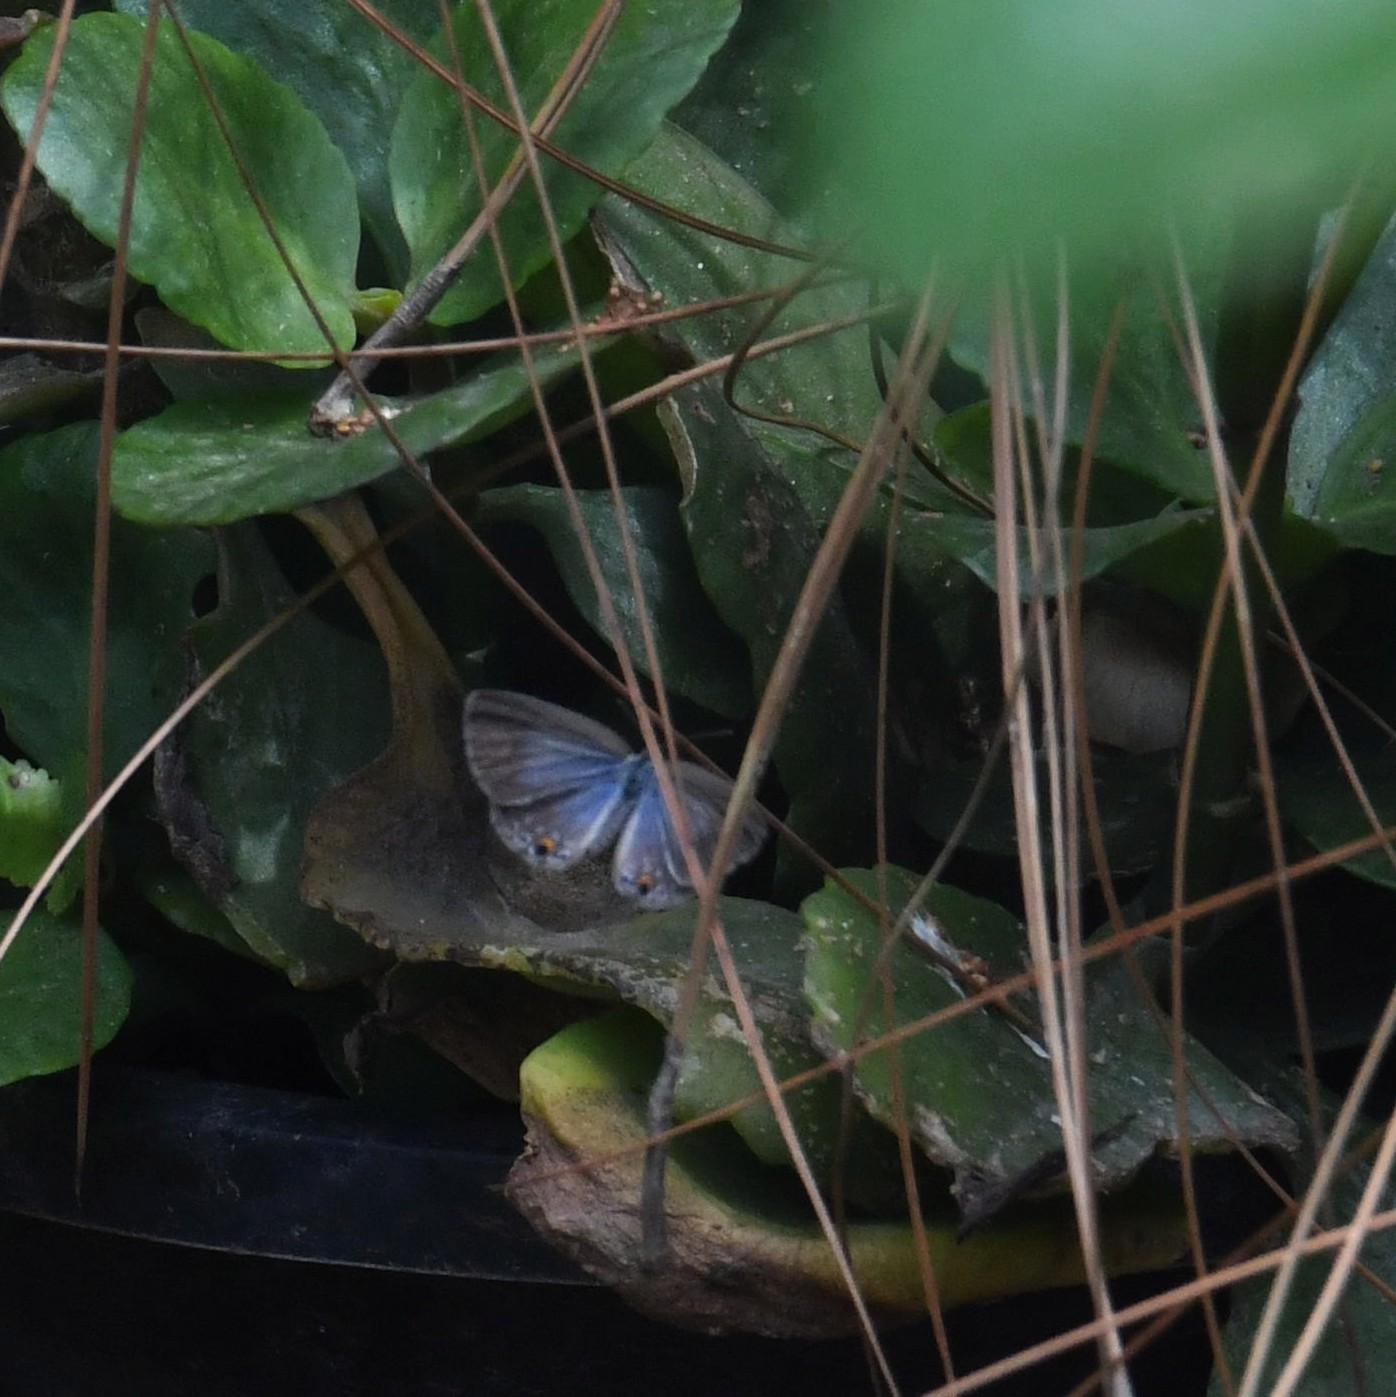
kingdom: Animalia
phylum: Arthropoda
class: Insecta
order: Lepidoptera
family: Lycaenidae
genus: Luthrodes
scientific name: Luthrodes pandava
